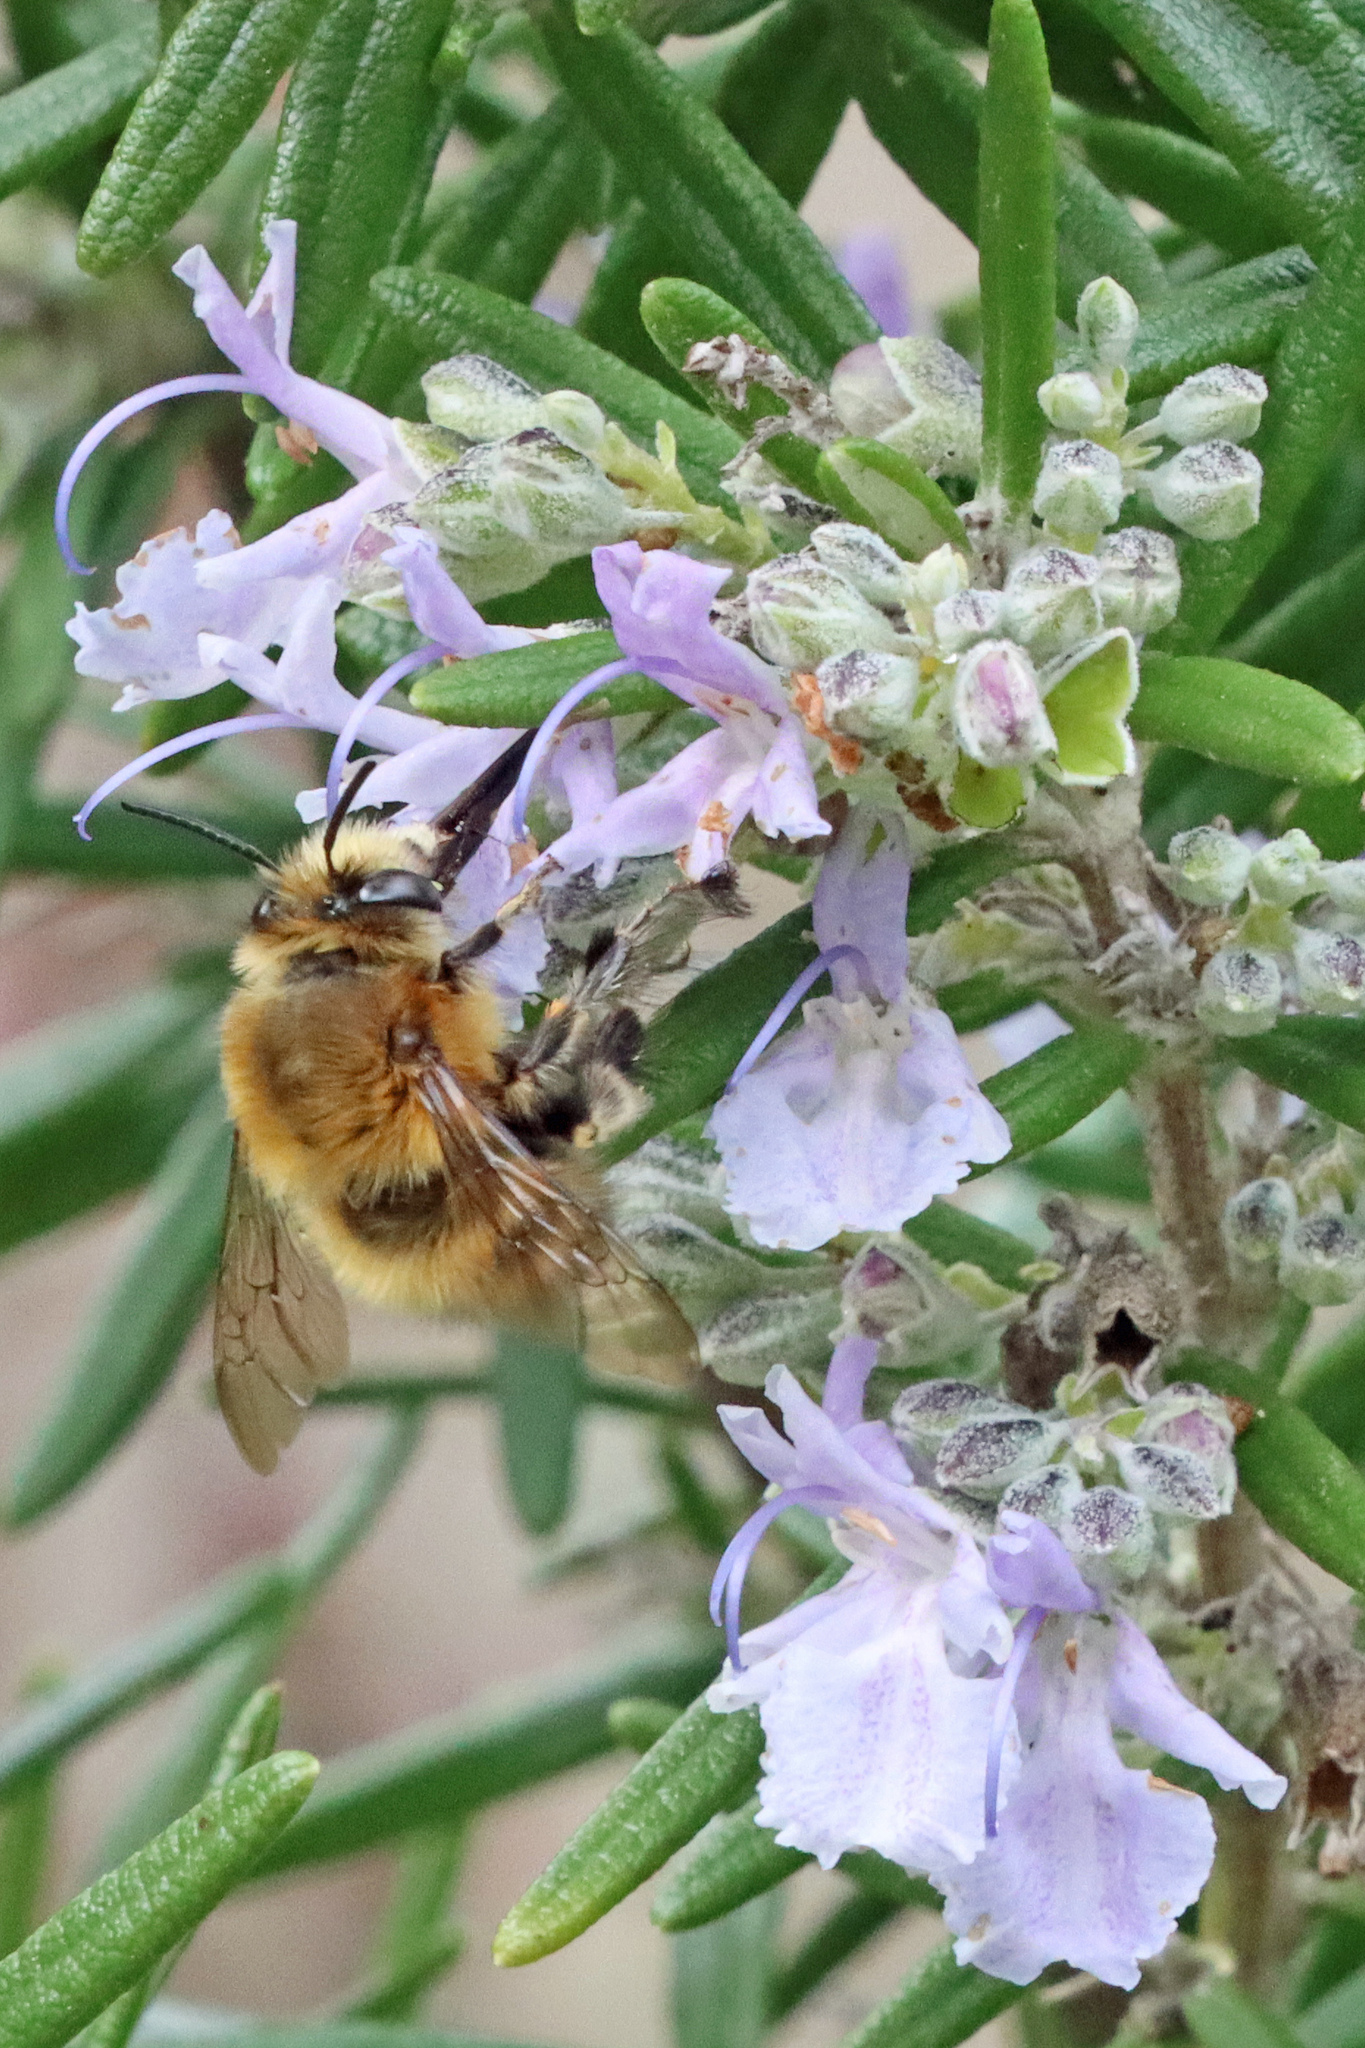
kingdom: Animalia
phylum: Arthropoda
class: Insecta
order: Hymenoptera
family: Apidae
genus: Anthophora
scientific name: Anthophora plumipes
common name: Hairy-footed flower bee
